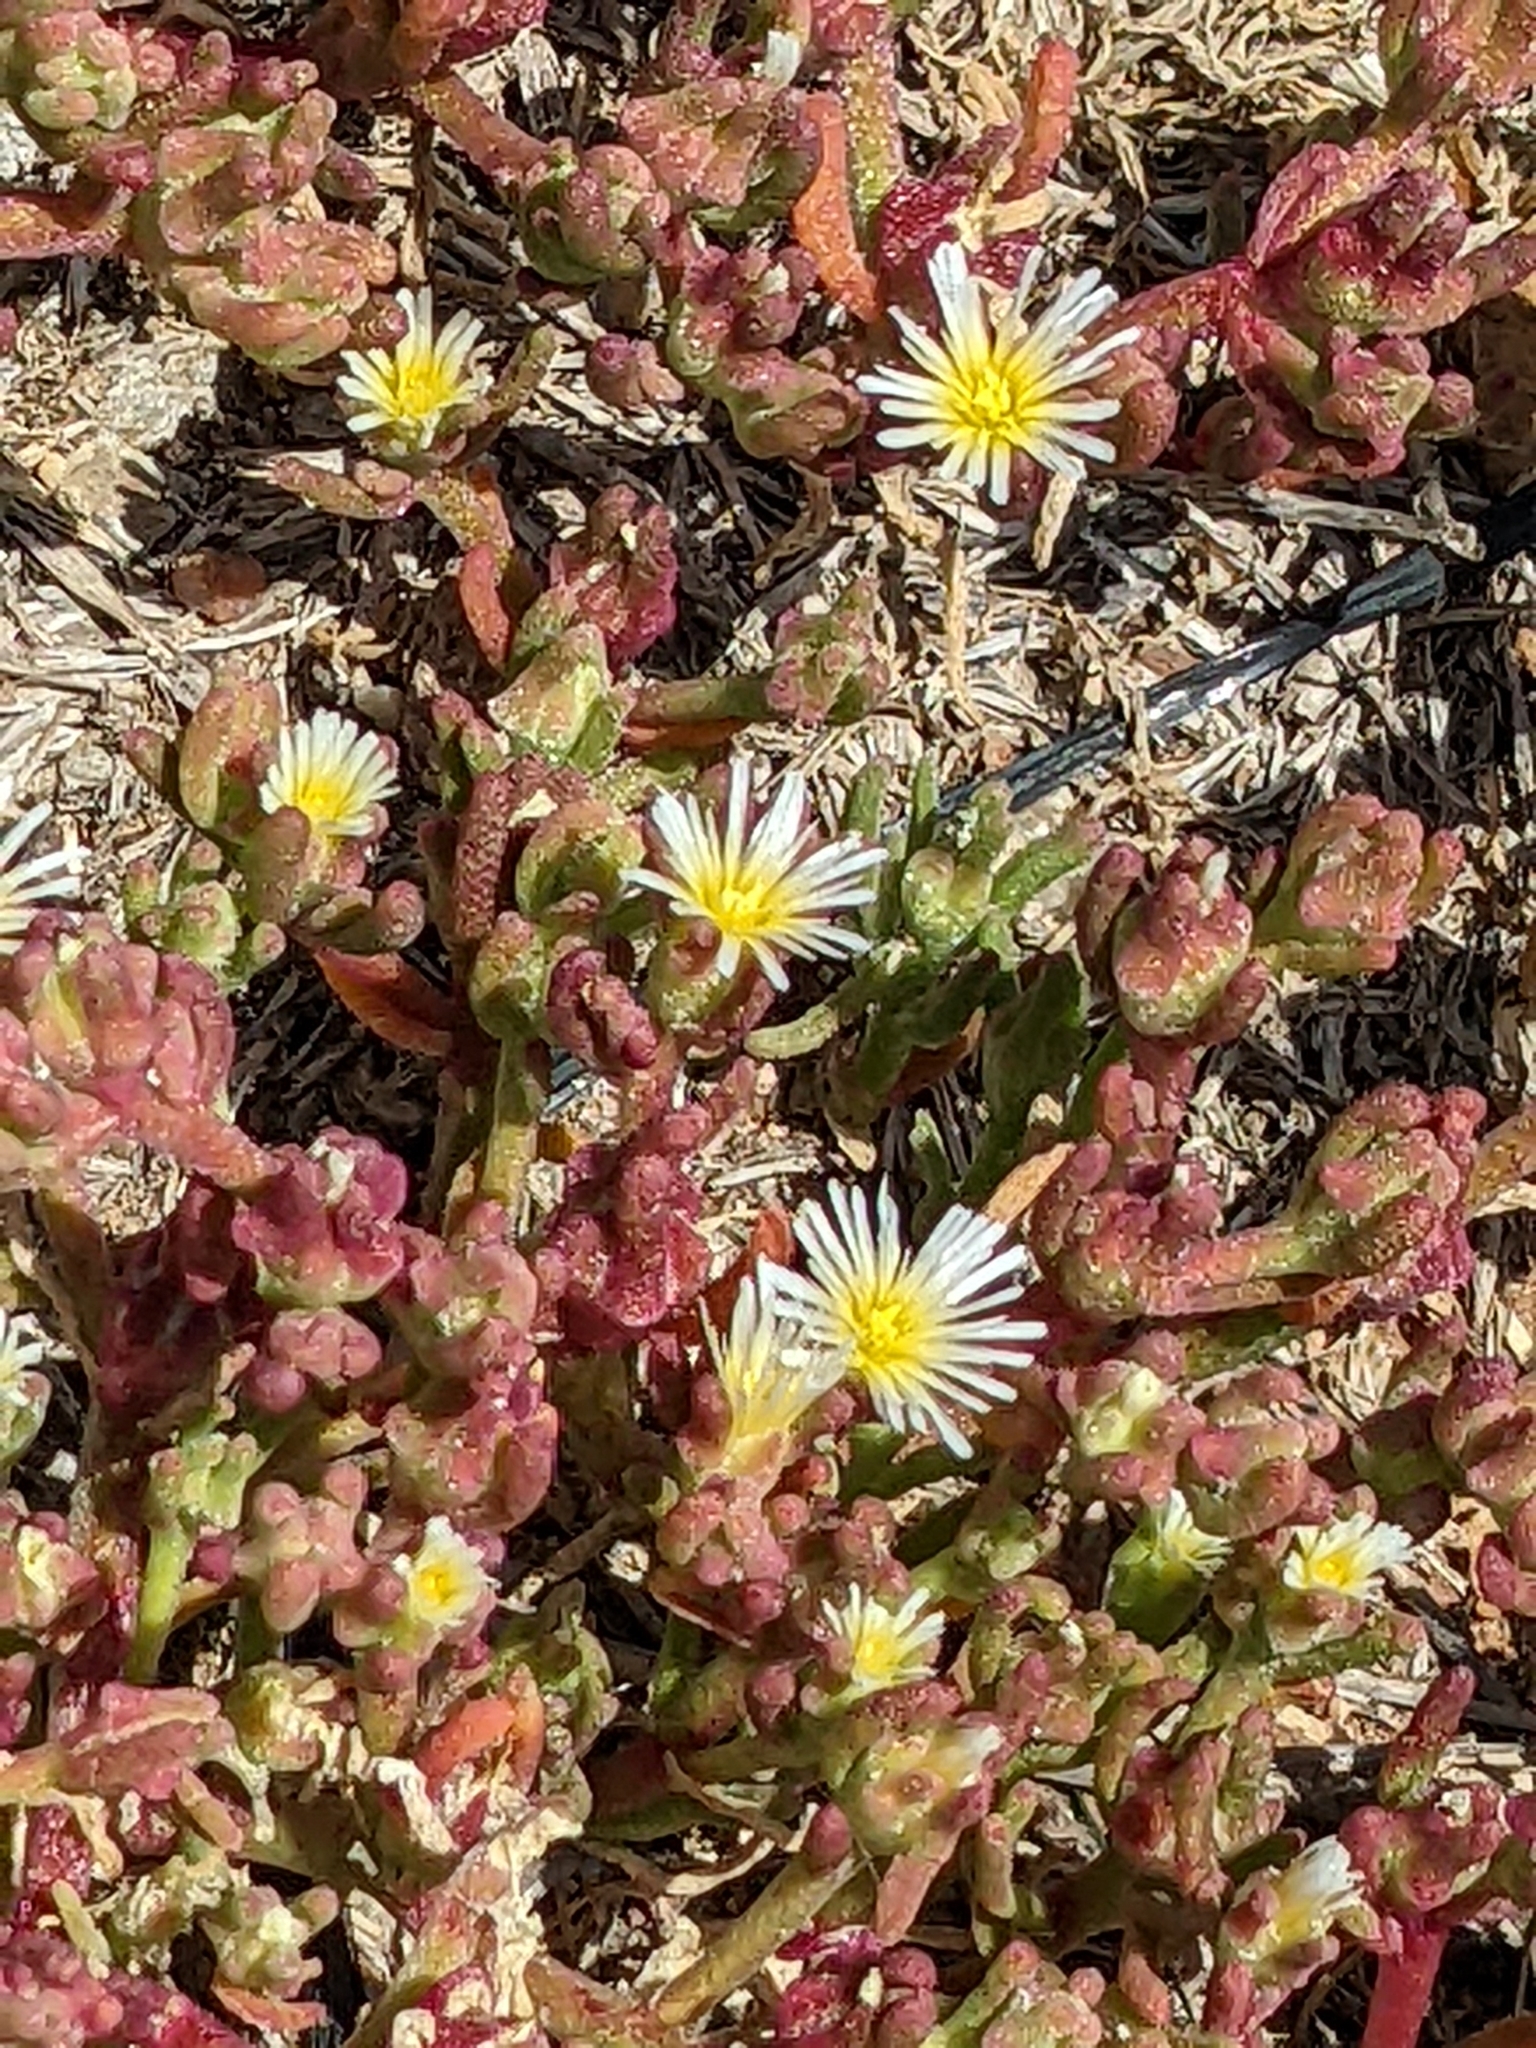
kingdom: Plantae
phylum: Tracheophyta
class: Magnoliopsida
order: Caryophyllales
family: Aizoaceae
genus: Mesembryanthemum
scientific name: Mesembryanthemum nodiflorum
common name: Slenderleaf iceplant
